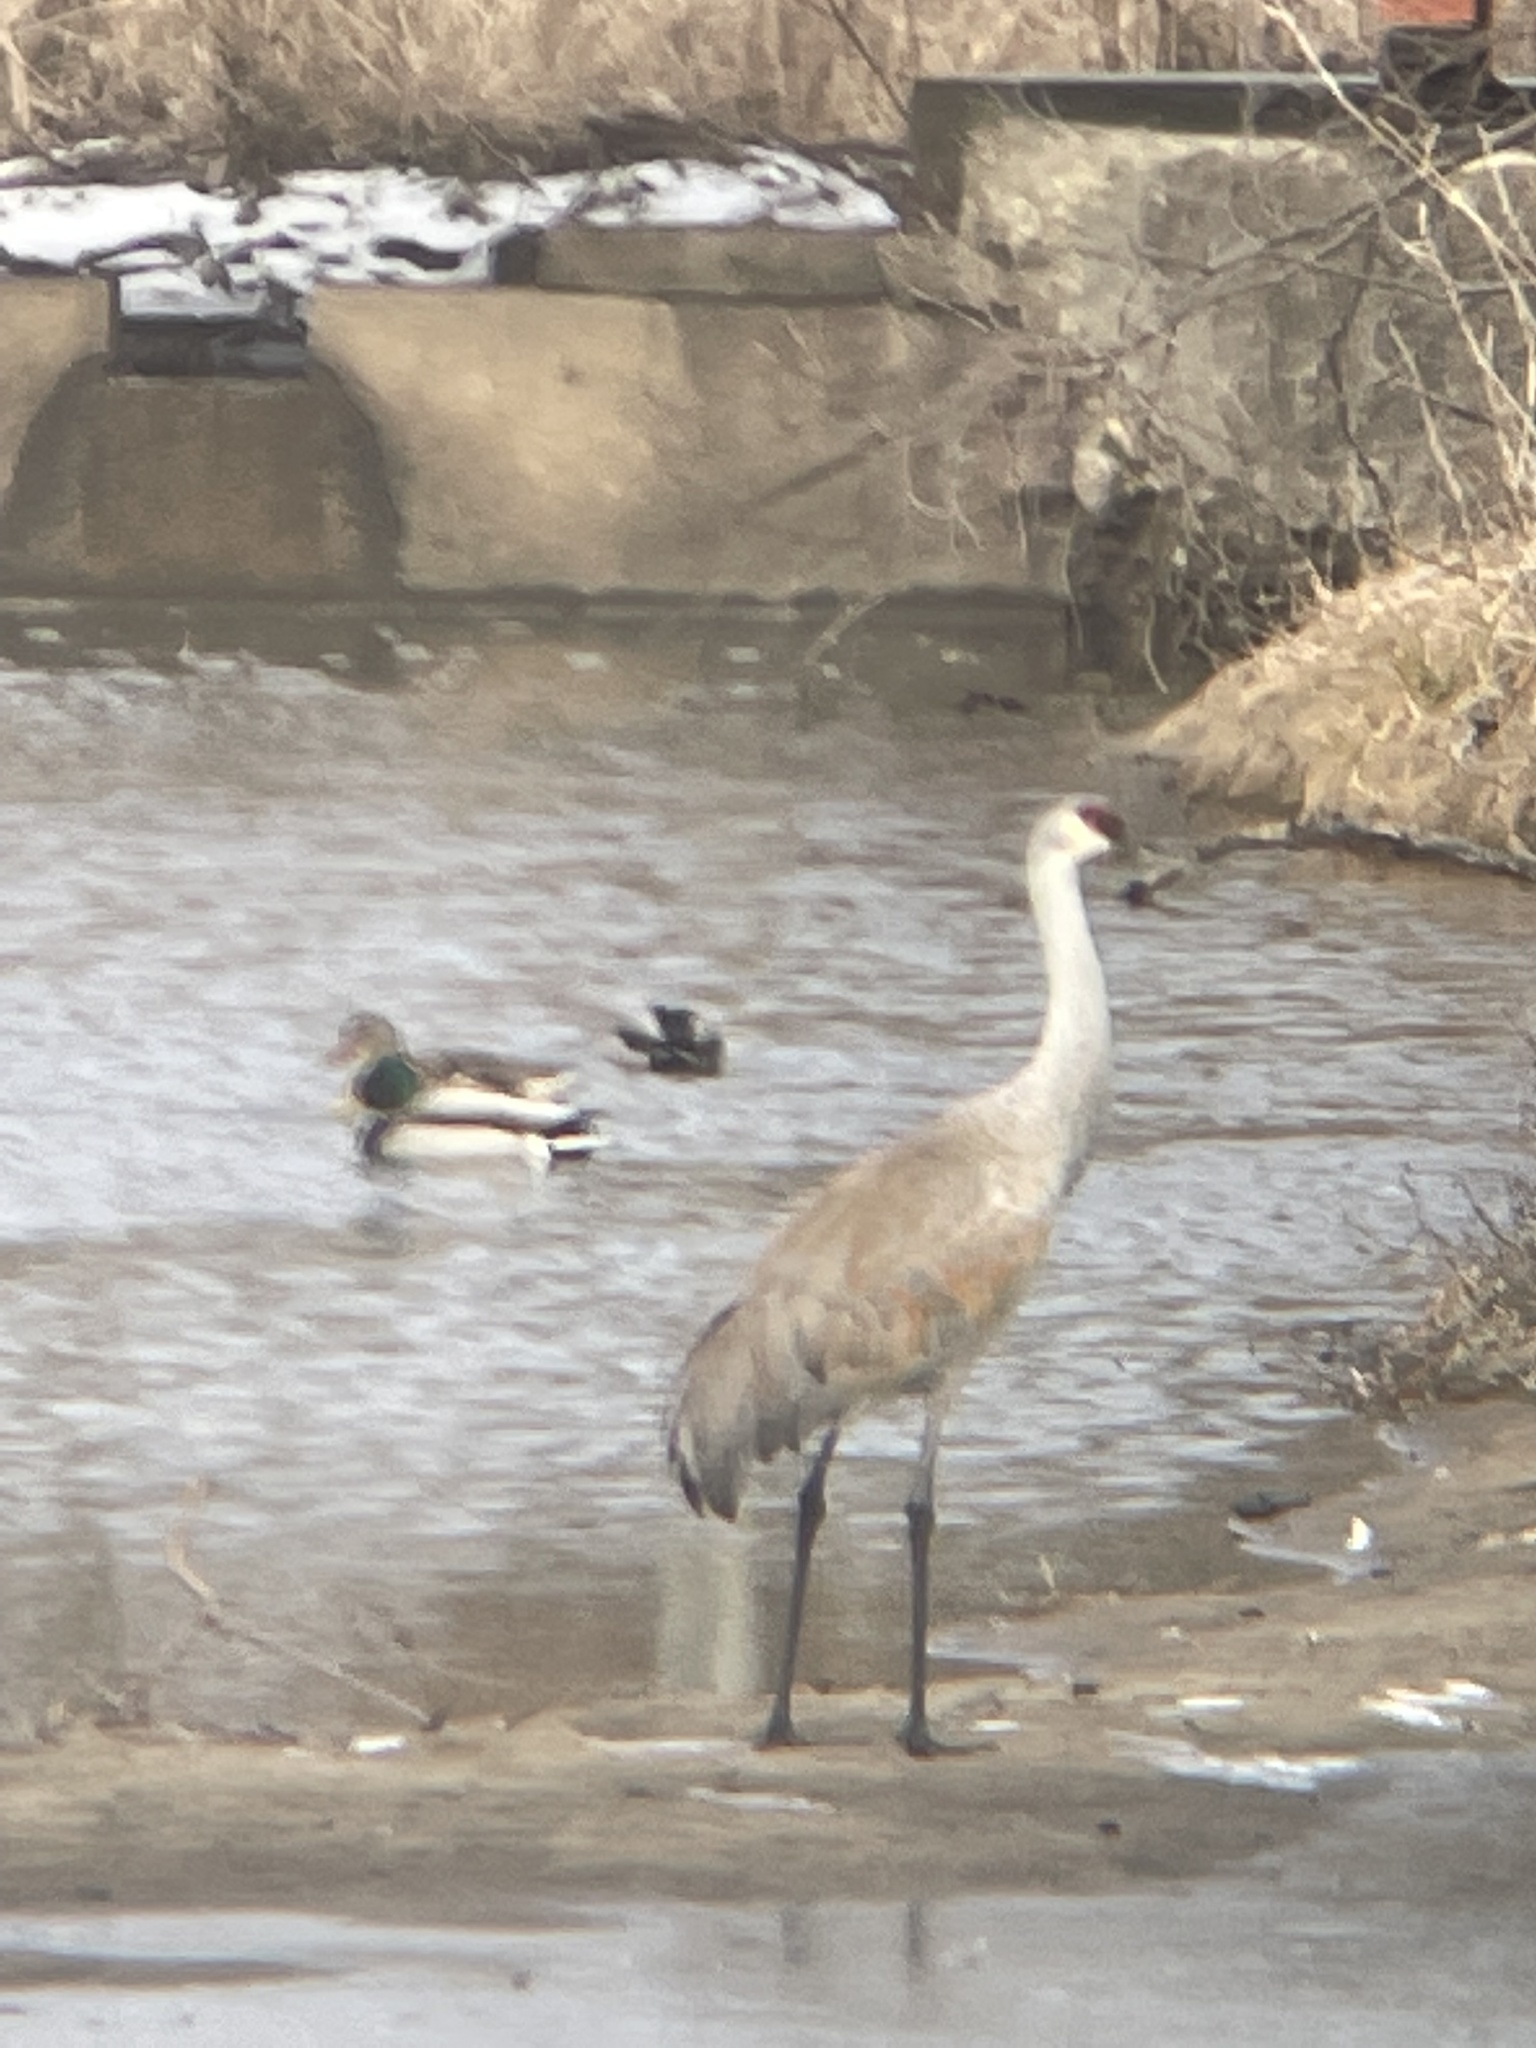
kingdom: Animalia
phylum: Chordata
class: Aves
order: Gruiformes
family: Gruidae
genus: Grus
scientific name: Grus canadensis
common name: Sandhill crane
